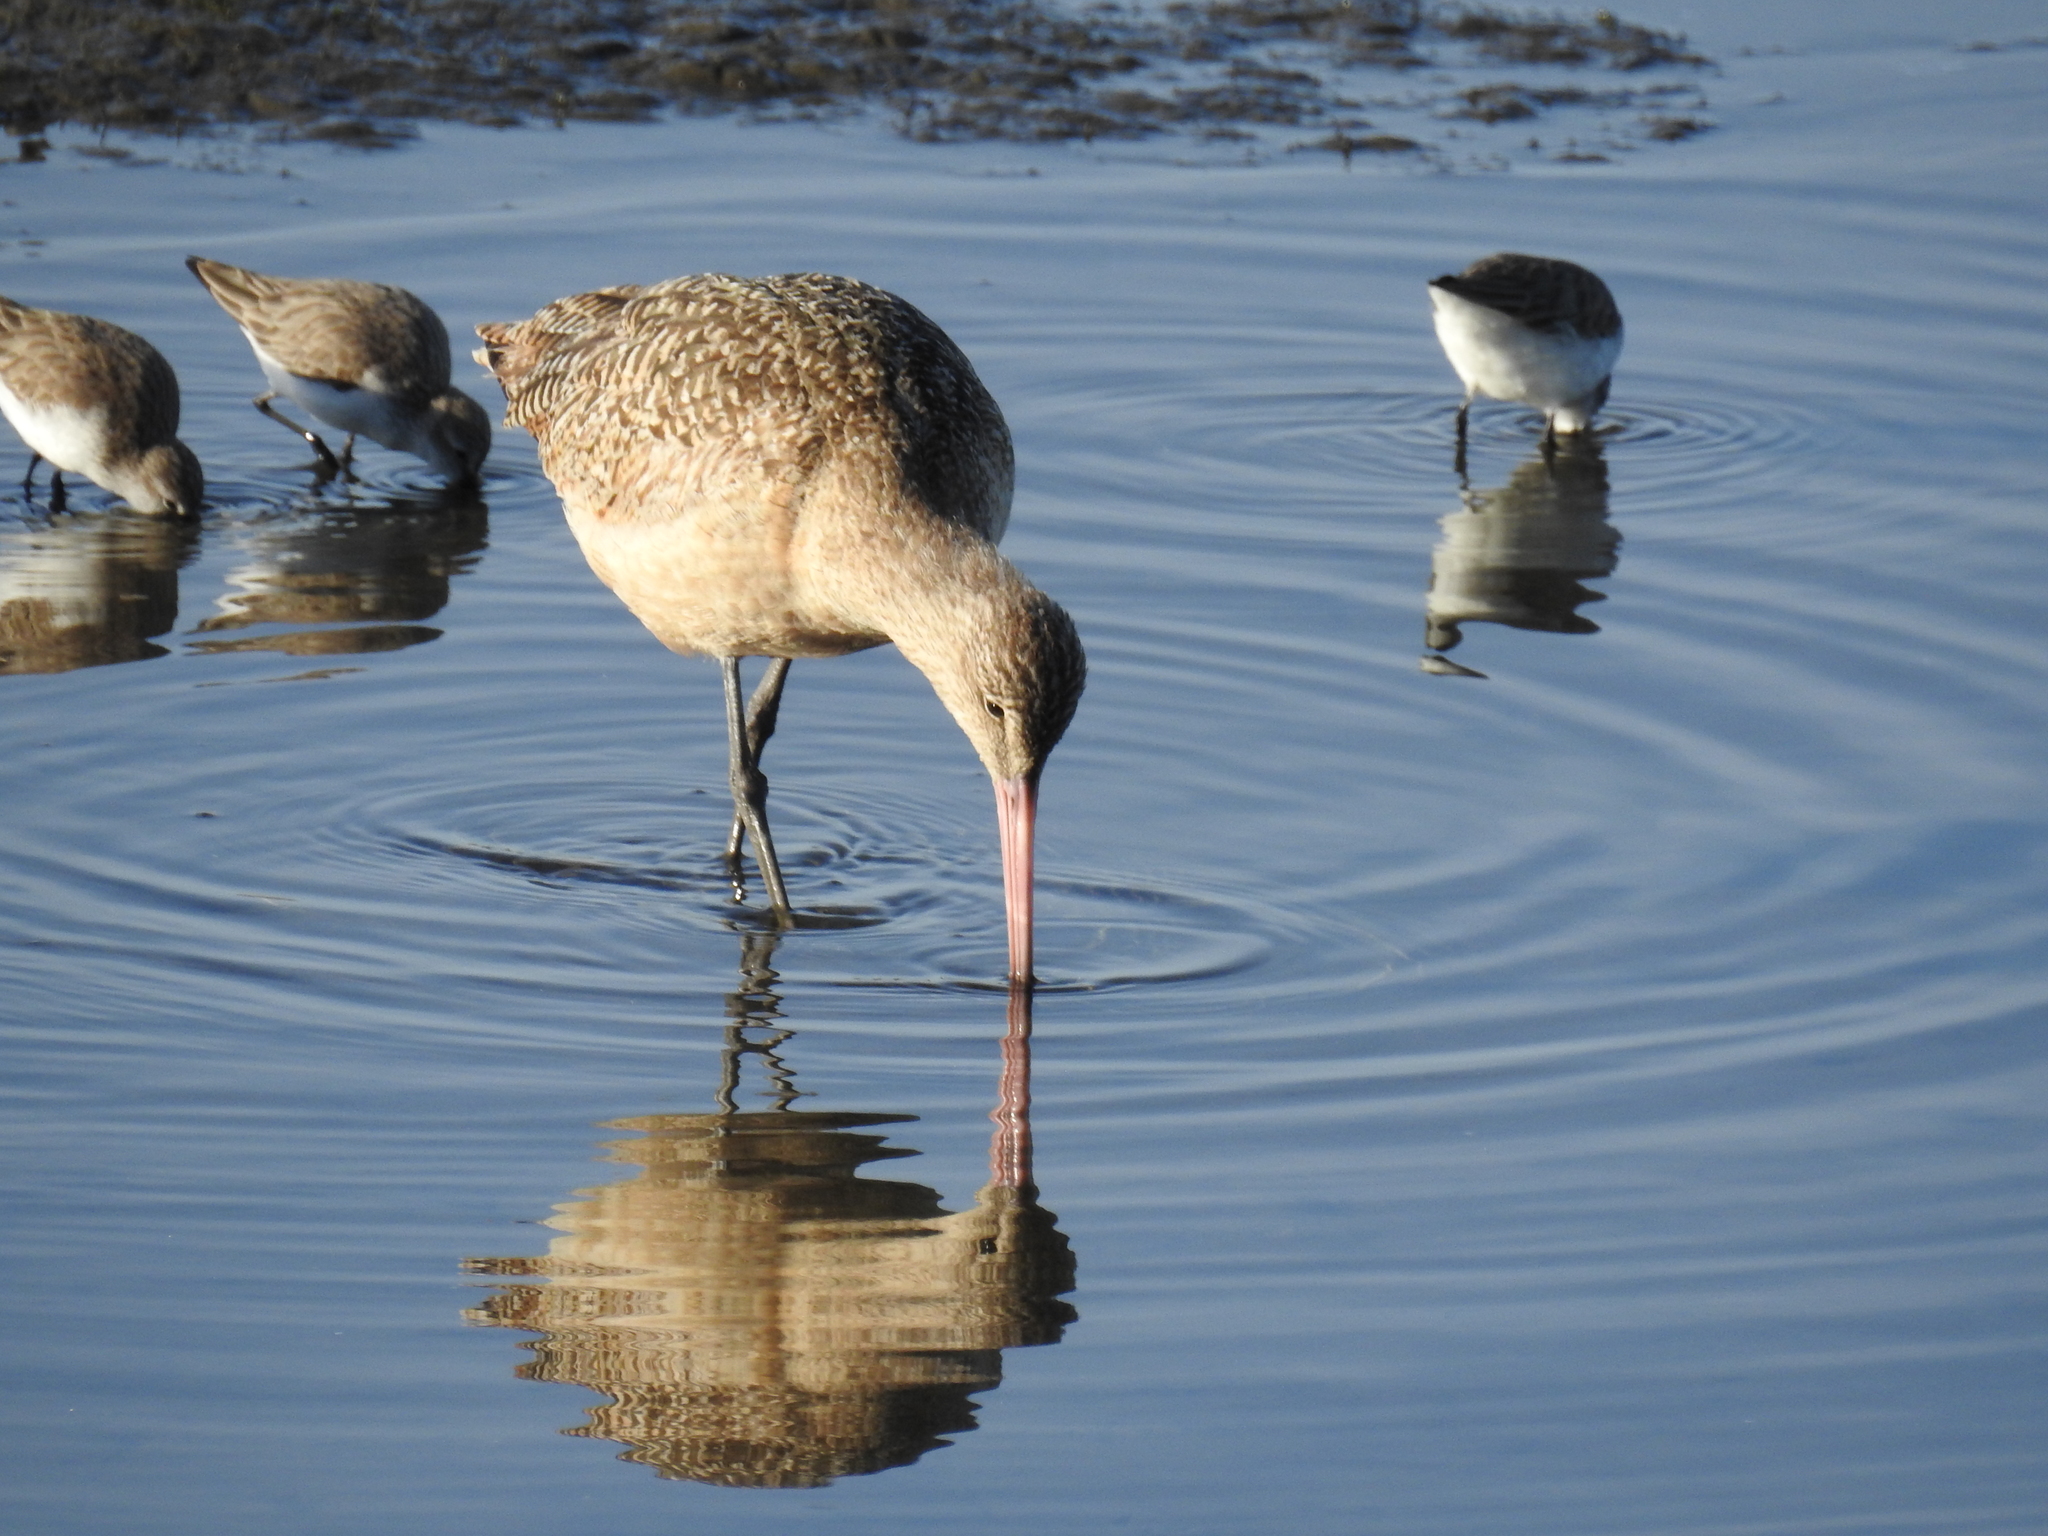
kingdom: Animalia
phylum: Chordata
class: Aves
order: Charadriiformes
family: Scolopacidae
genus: Limosa
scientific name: Limosa fedoa
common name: Marbled godwit
